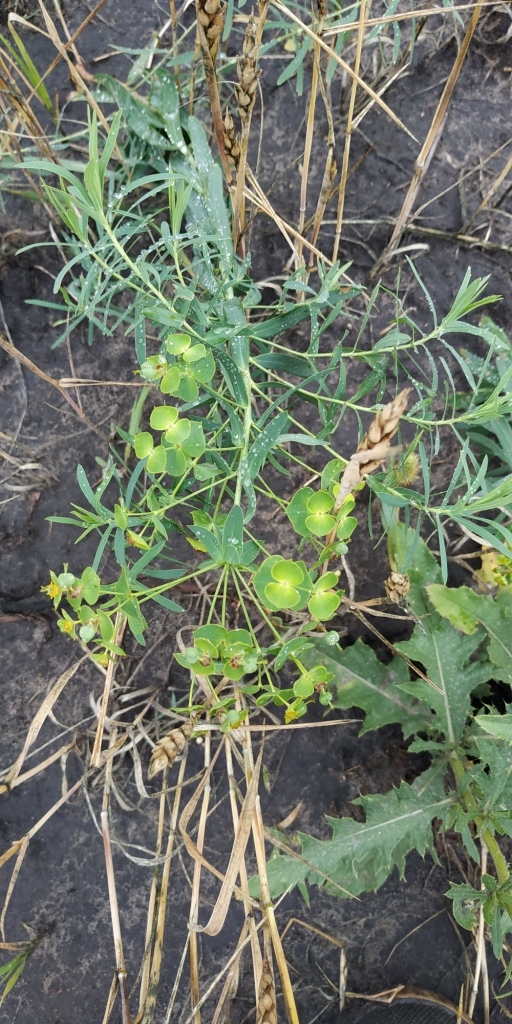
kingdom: Plantae
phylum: Tracheophyta
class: Magnoliopsida
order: Malpighiales
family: Euphorbiaceae
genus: Euphorbia
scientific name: Euphorbia virgata
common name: Leafy spurge
